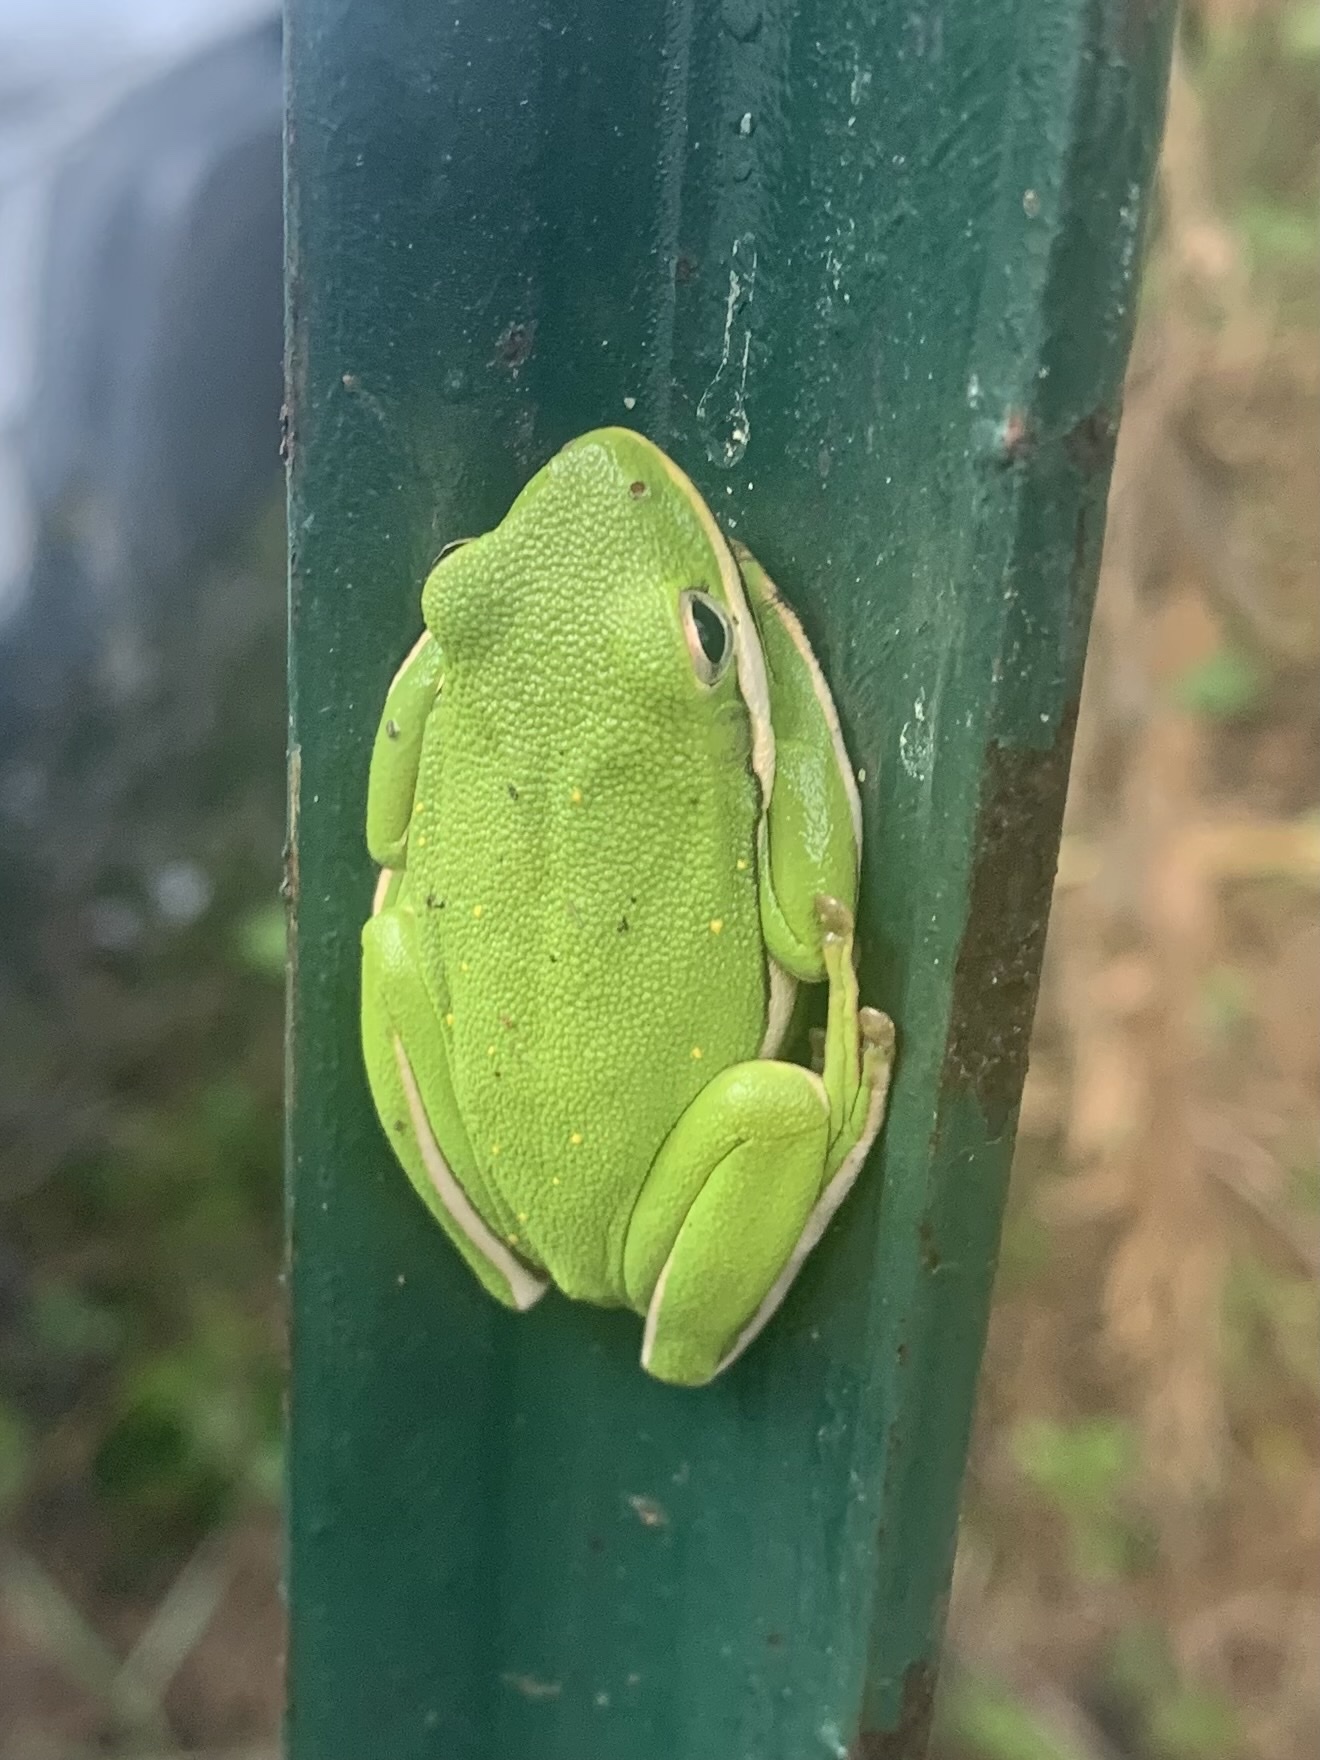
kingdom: Animalia
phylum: Chordata
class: Amphibia
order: Anura
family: Hylidae
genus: Dryophytes
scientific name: Dryophytes cinereus
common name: Green treefrog
